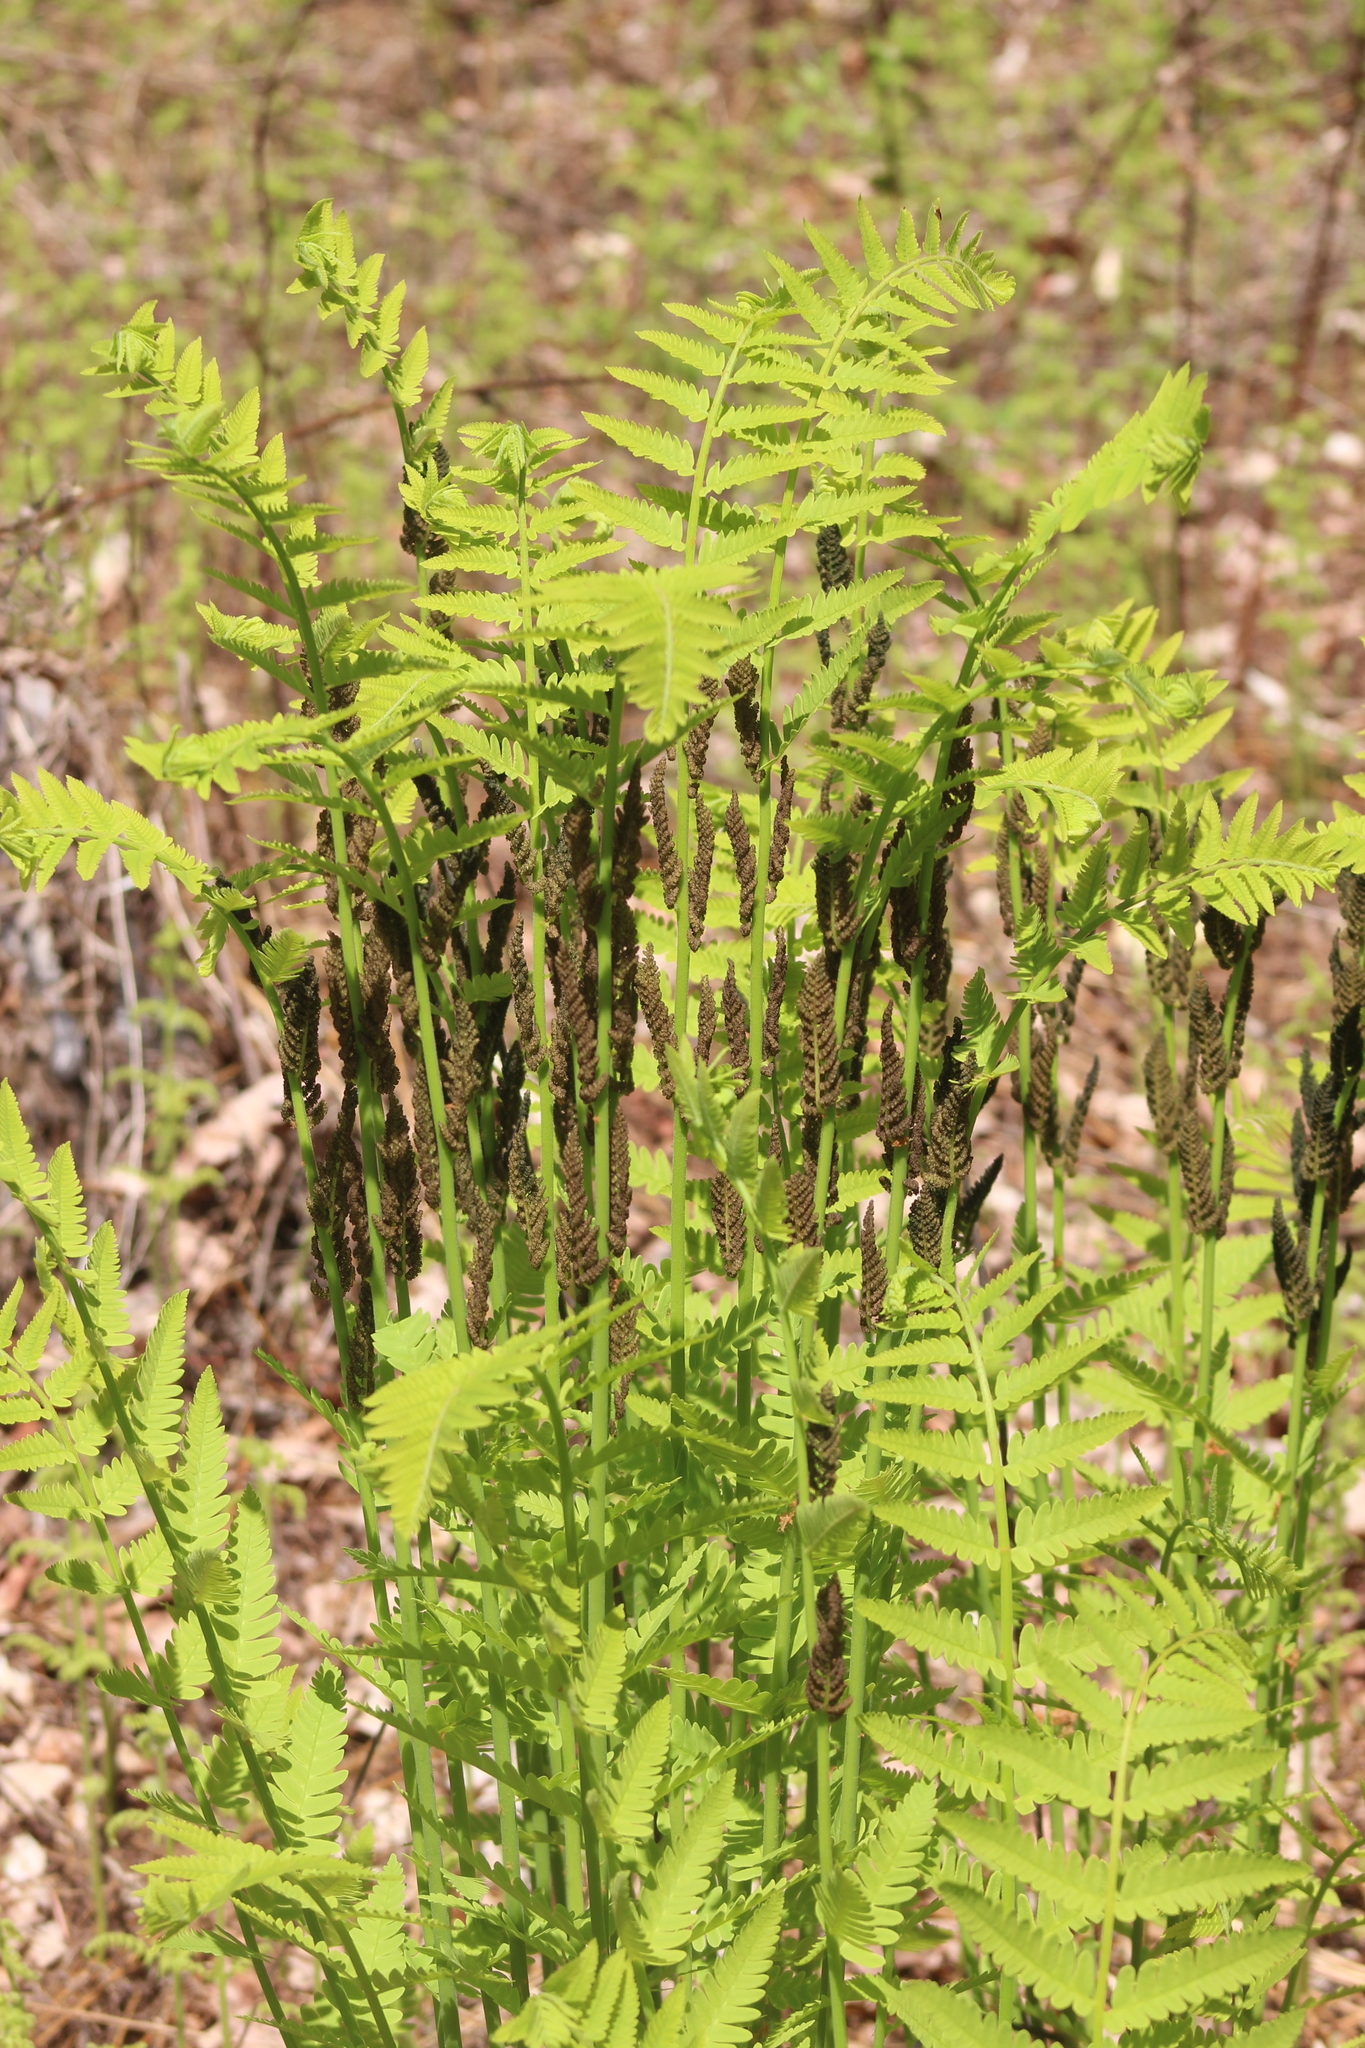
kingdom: Plantae
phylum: Tracheophyta
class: Polypodiopsida
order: Osmundales
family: Osmundaceae
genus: Claytosmunda
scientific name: Claytosmunda claytoniana
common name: Clayton's fern
